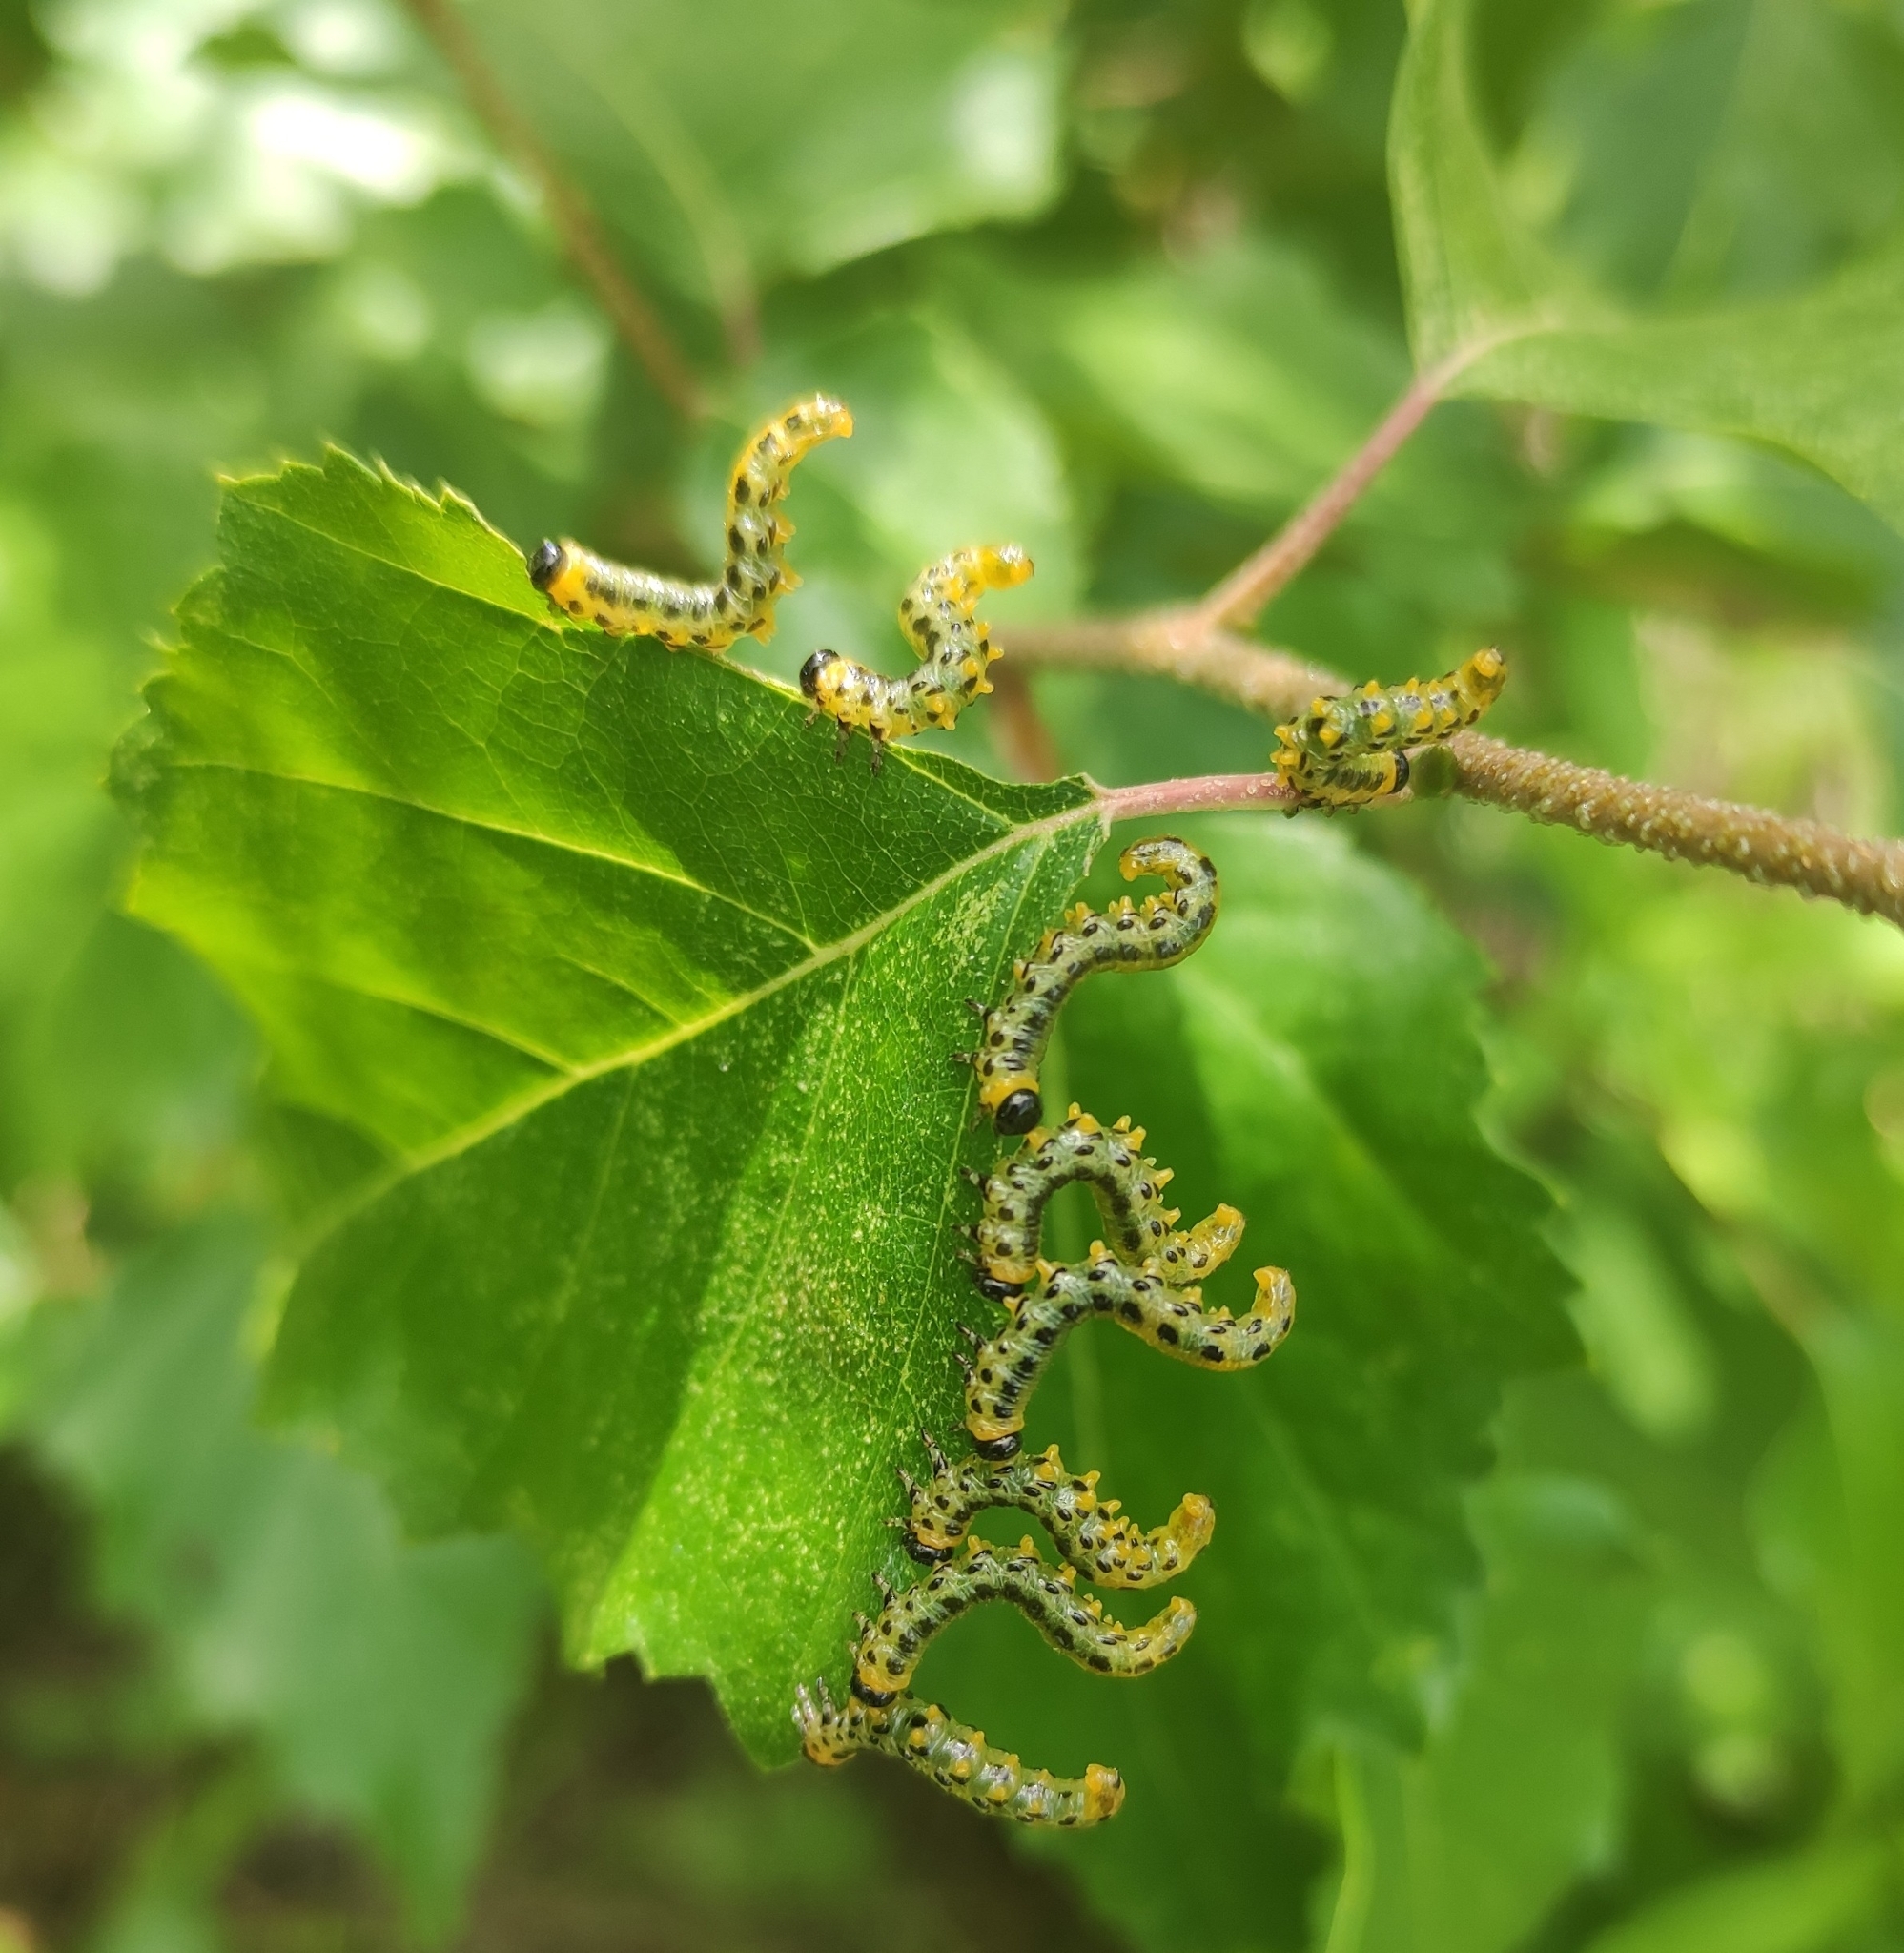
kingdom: Animalia
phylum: Arthropoda
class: Insecta
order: Hymenoptera
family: Tenthredinidae
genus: Craesus
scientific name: Craesus septentrionalis
